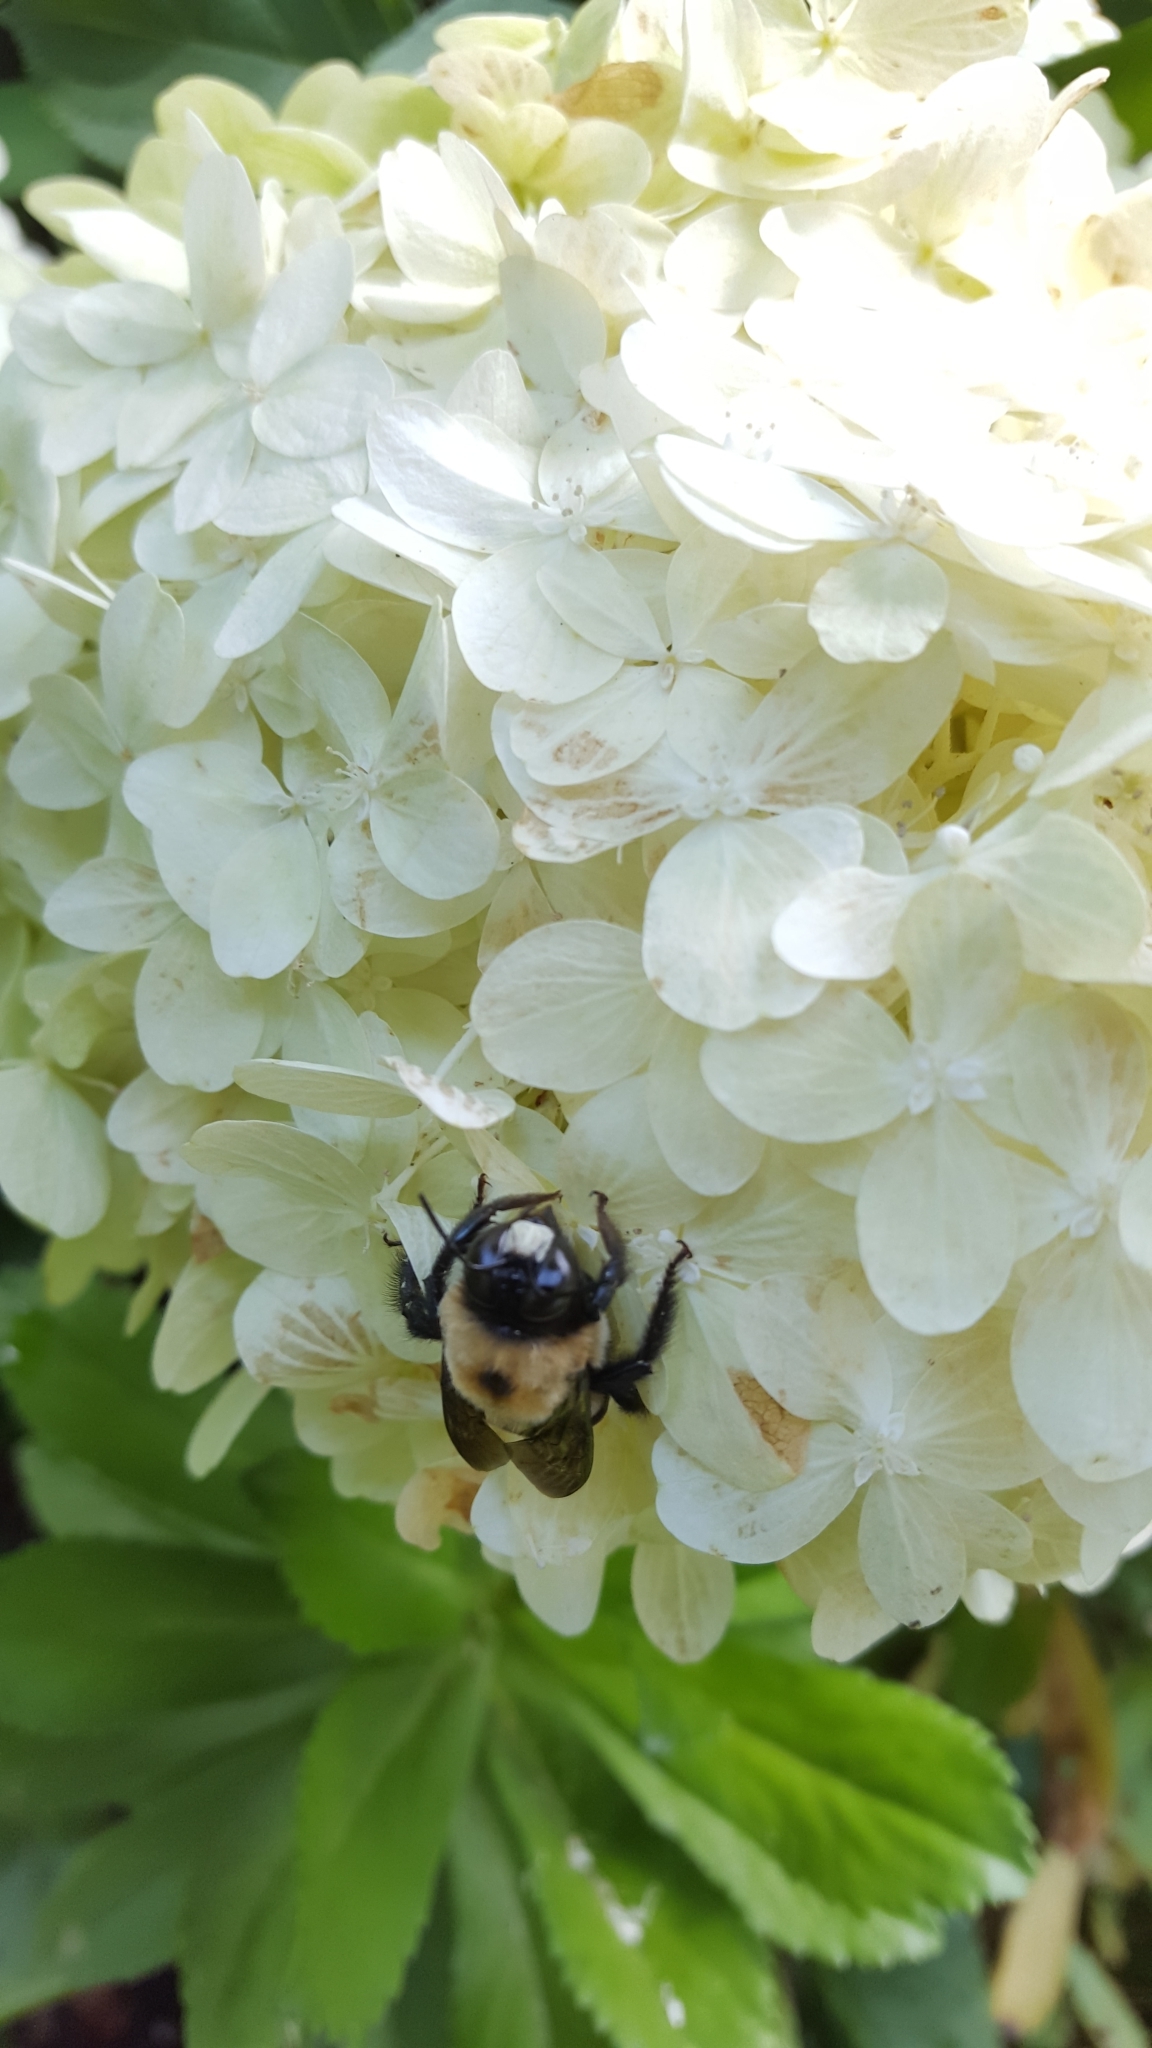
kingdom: Animalia
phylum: Arthropoda
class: Insecta
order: Hymenoptera
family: Apidae
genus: Xylocopa
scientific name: Xylocopa virginica
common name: Carpenter bee
